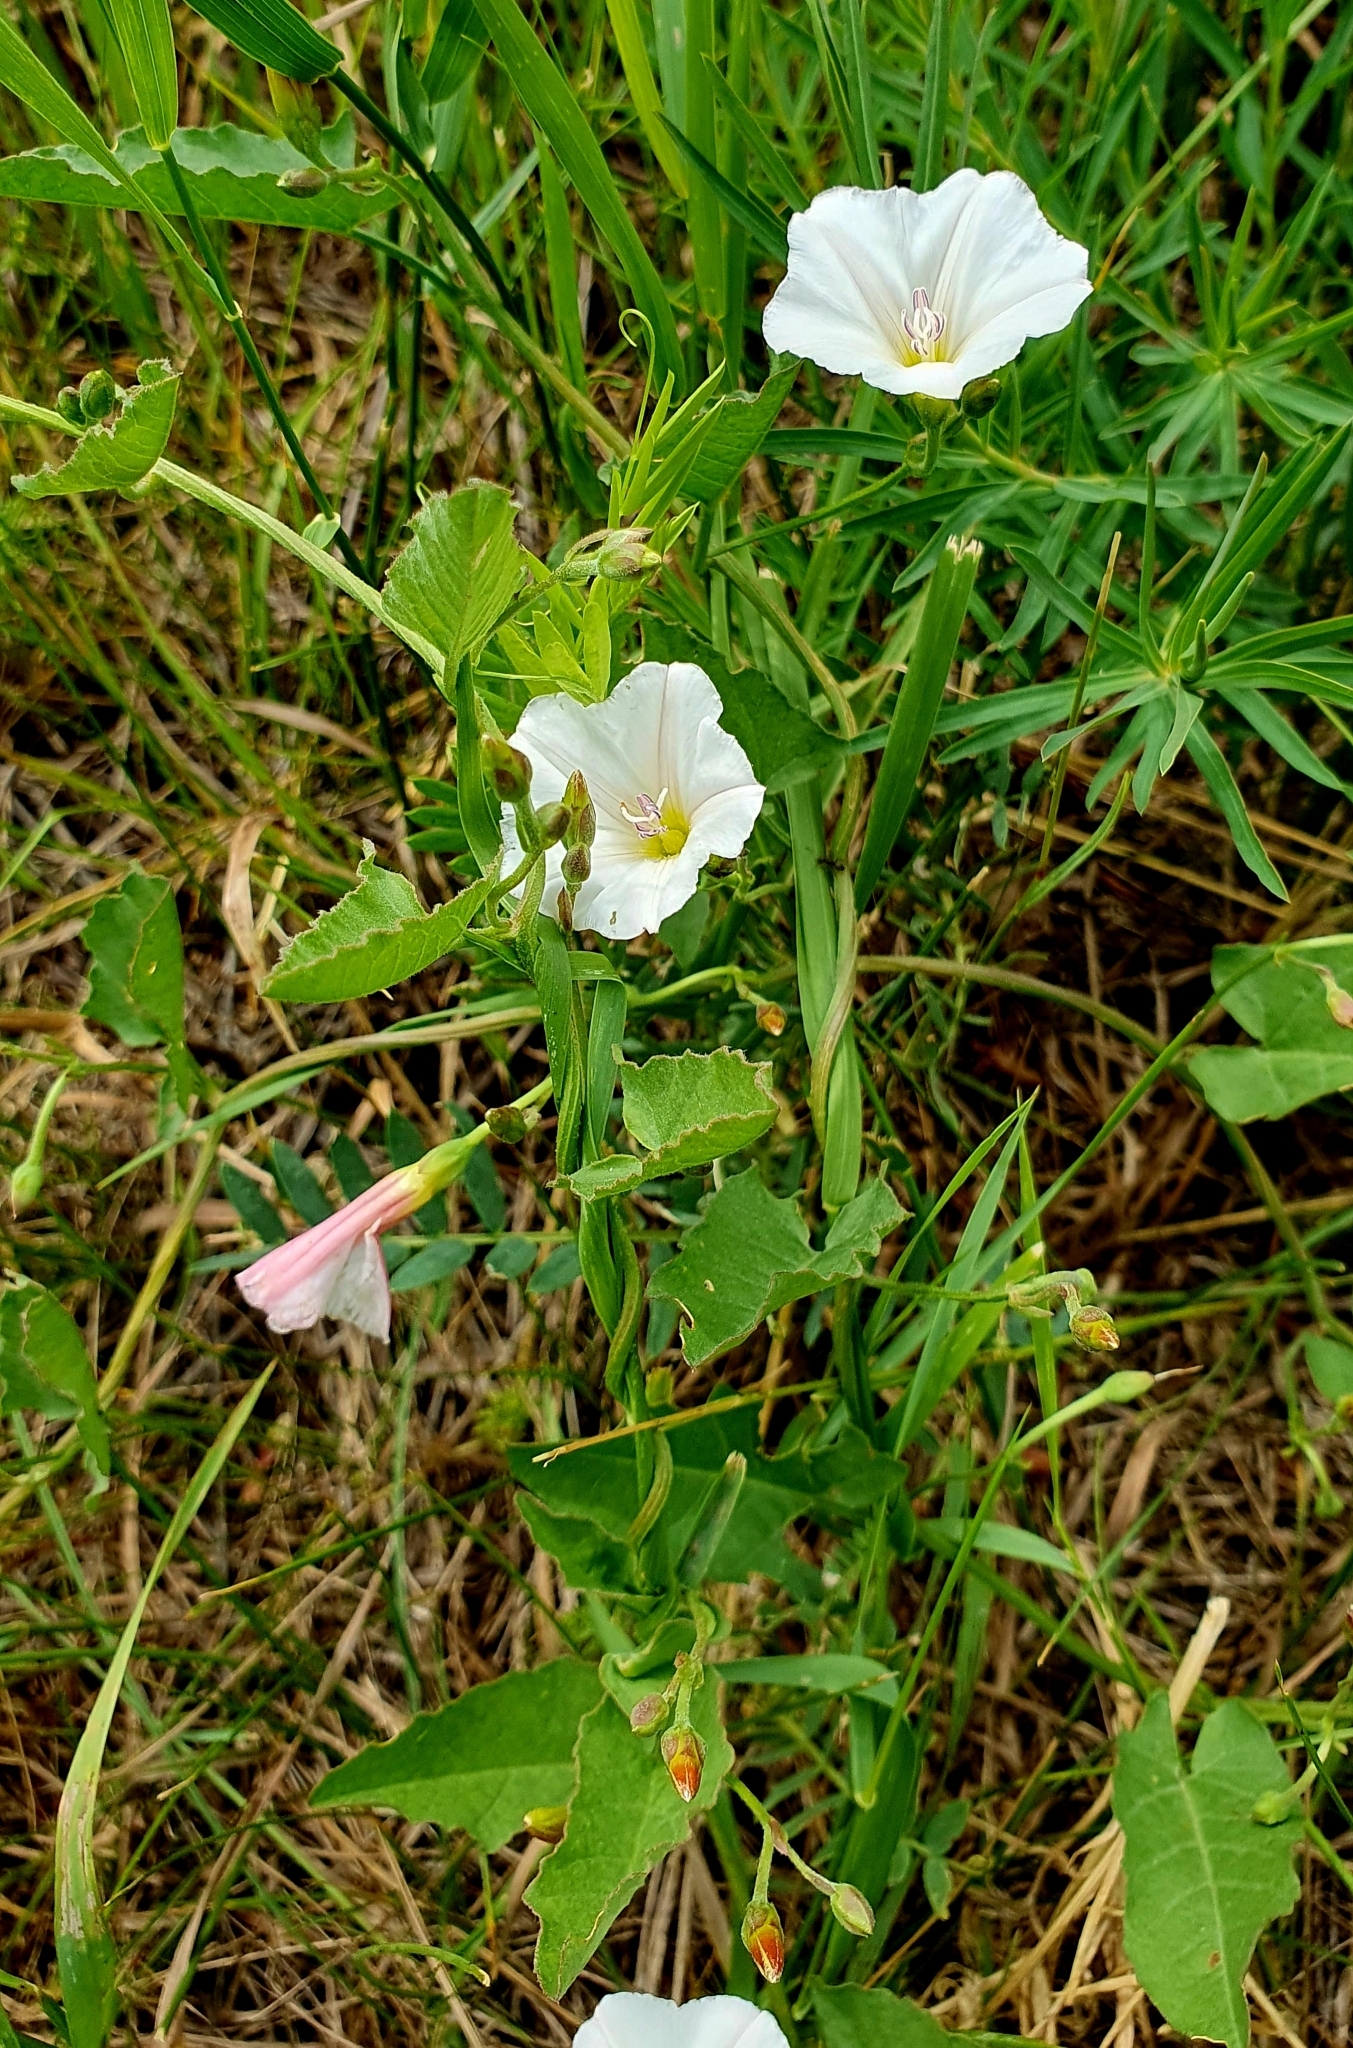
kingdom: Plantae
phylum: Tracheophyta
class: Magnoliopsida
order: Solanales
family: Convolvulaceae
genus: Convolvulus
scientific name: Convolvulus arvensis
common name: Field bindweed
